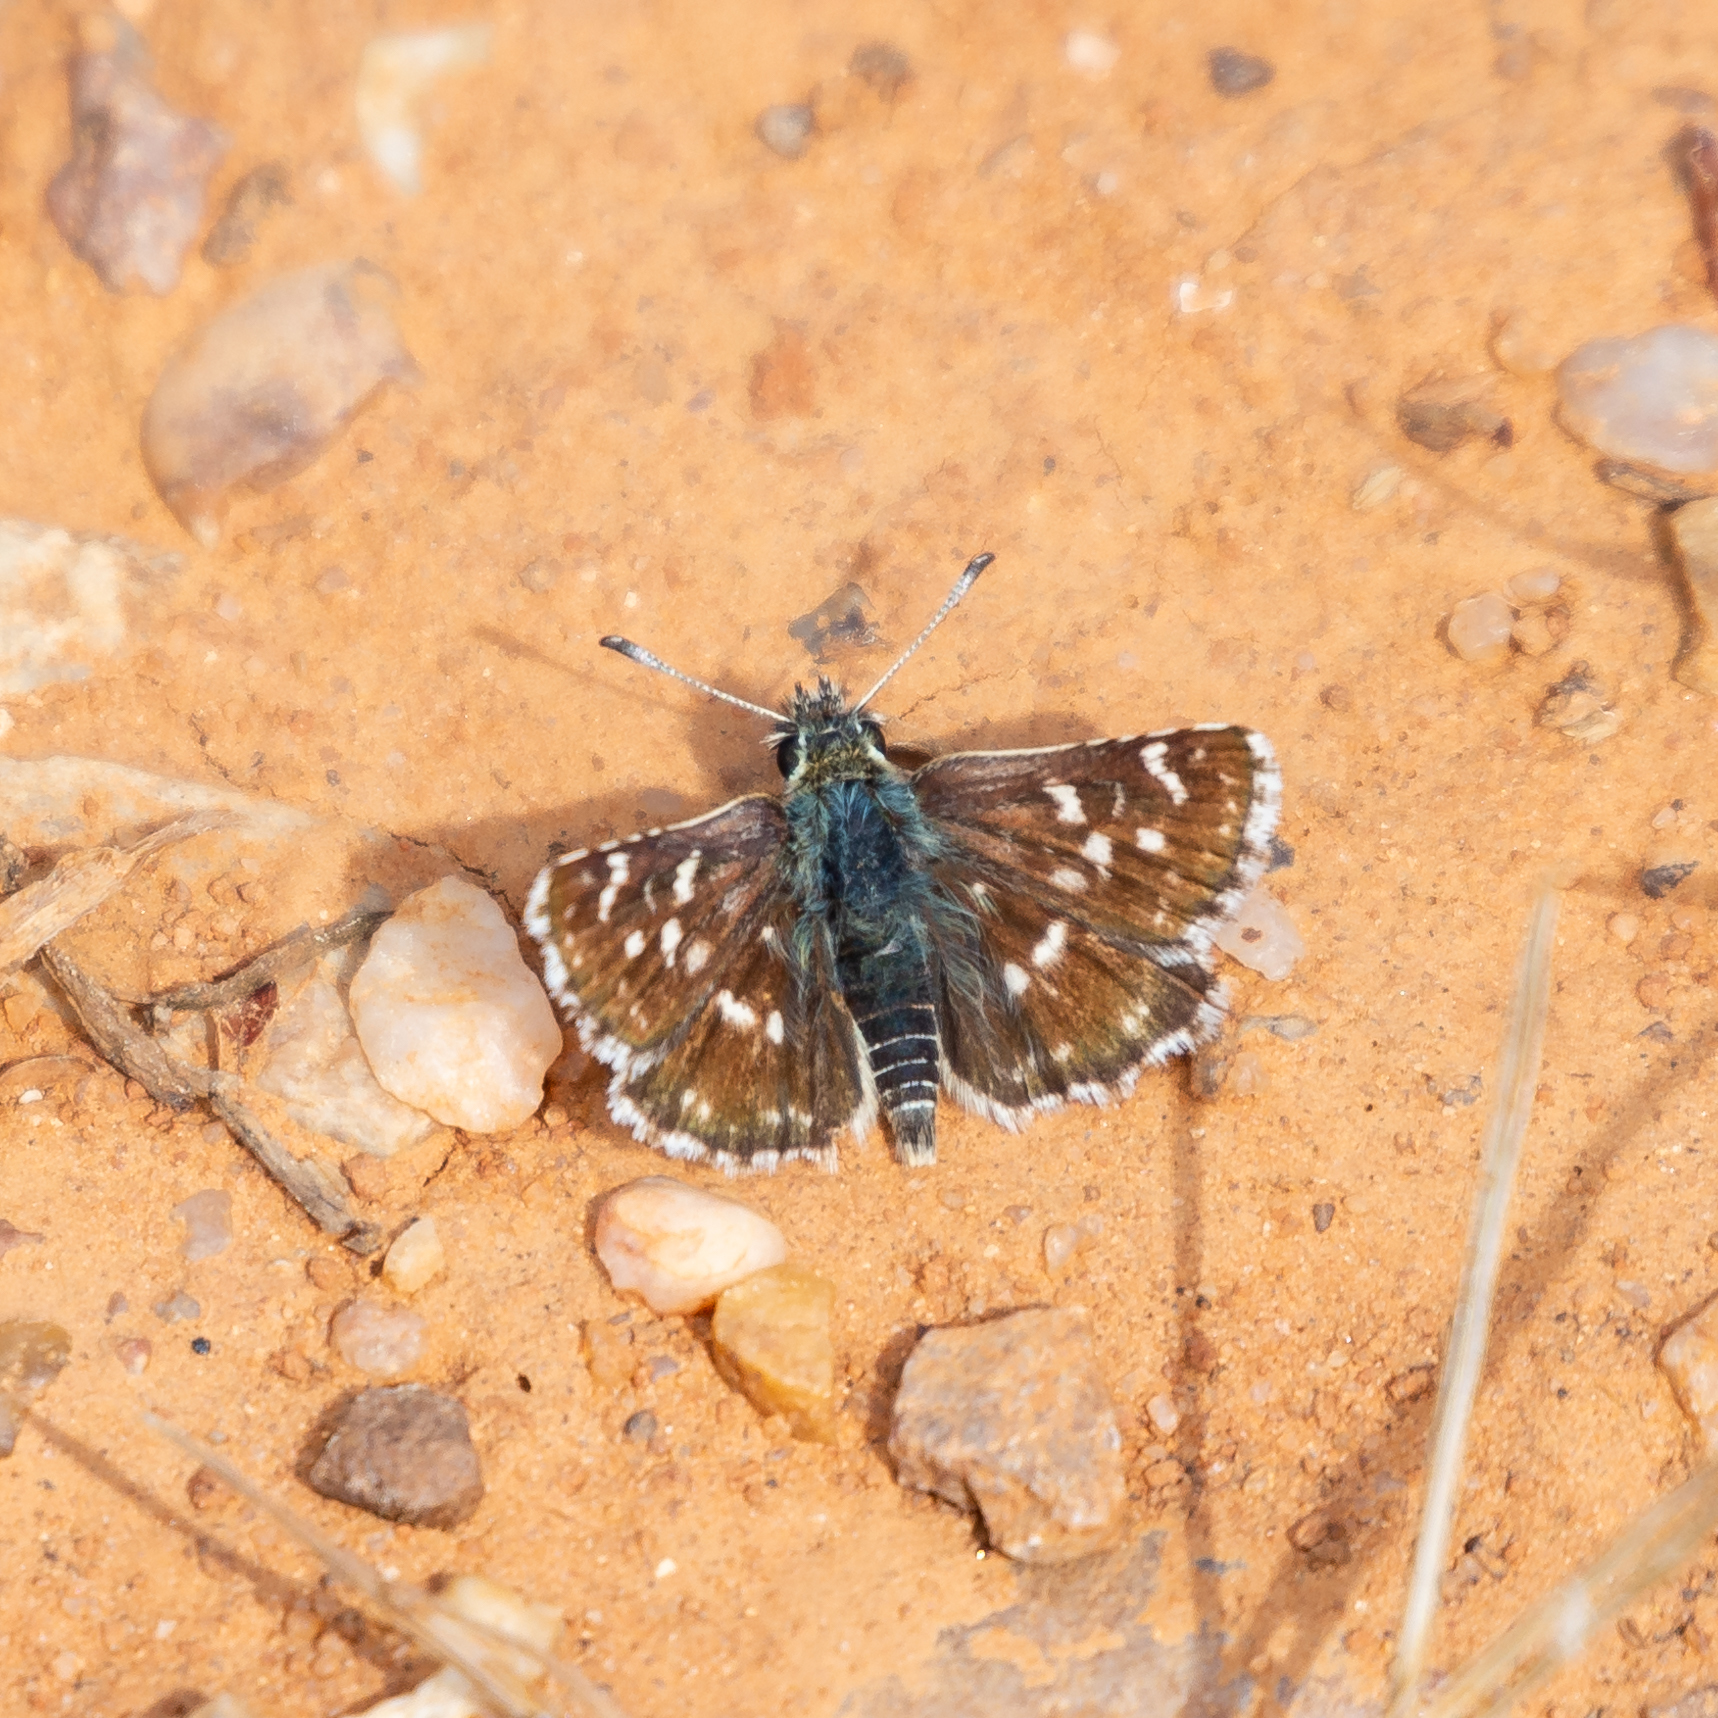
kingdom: Animalia
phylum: Arthropoda
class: Insecta
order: Lepidoptera
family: Hesperiidae
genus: Spialia
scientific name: Spialia sertorius
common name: Red underwing skipper
